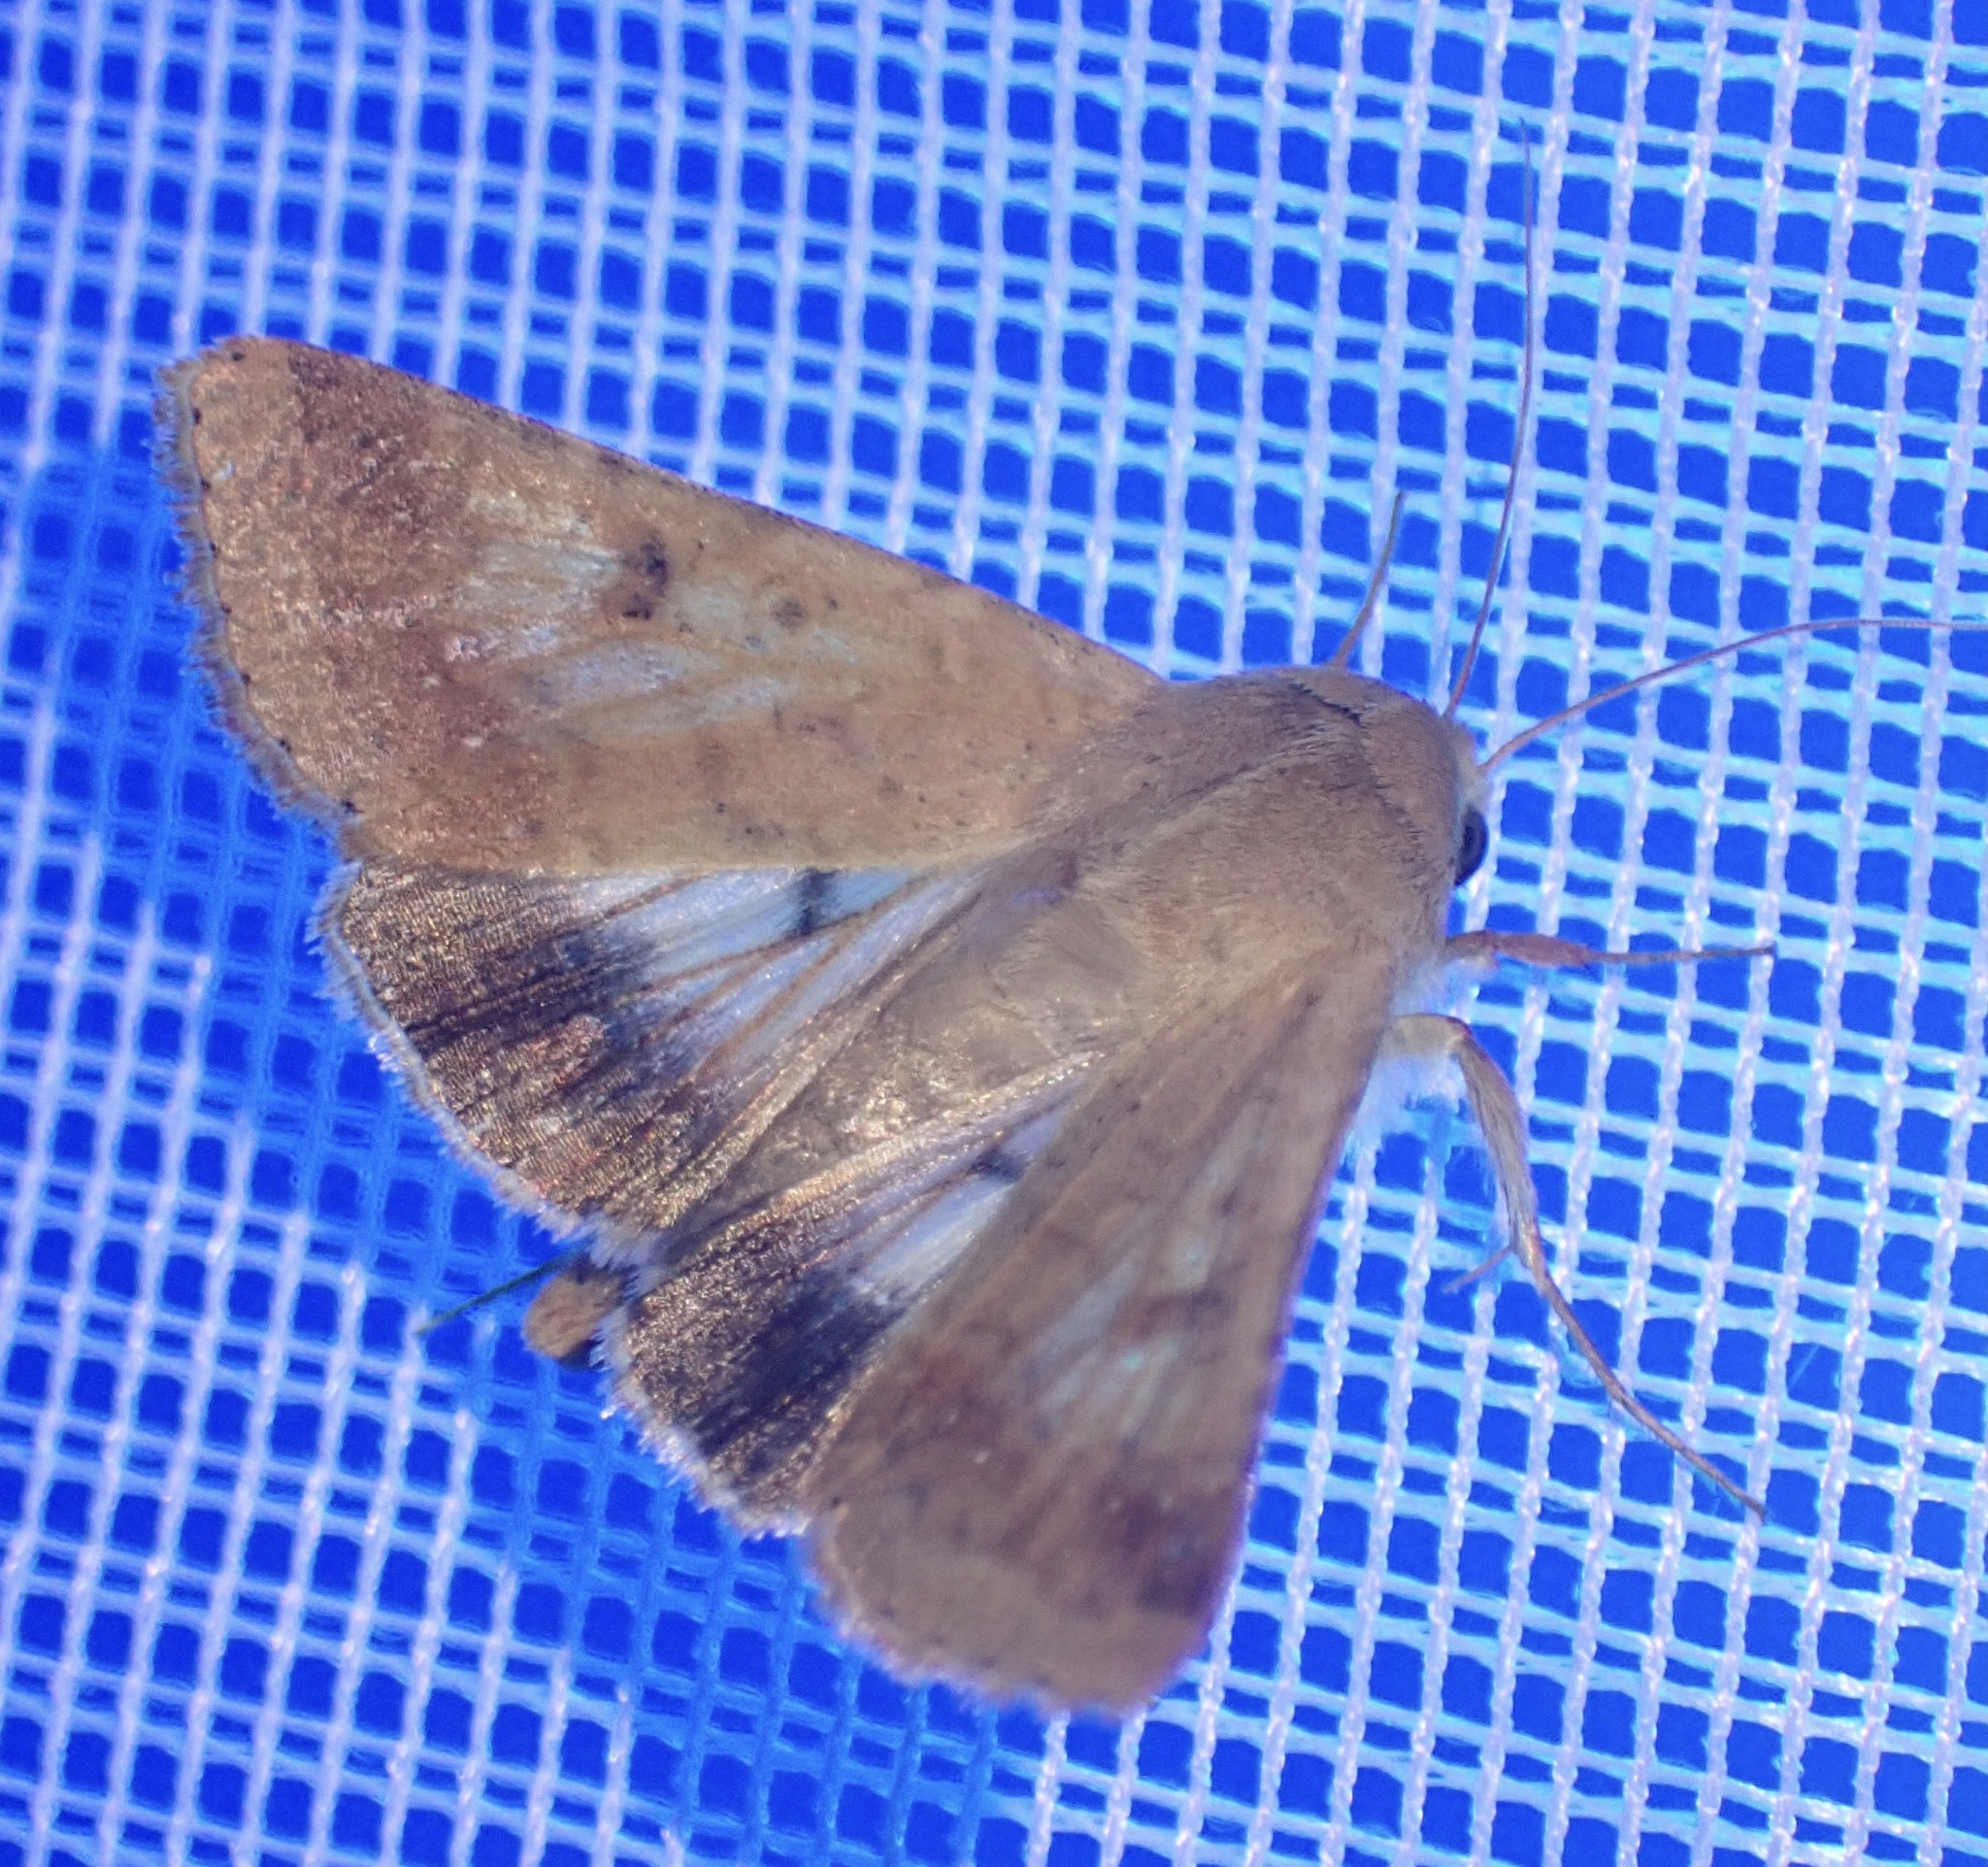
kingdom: Animalia
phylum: Arthropoda
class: Insecta
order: Lepidoptera
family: Noctuidae
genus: Helicoverpa
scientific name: Helicoverpa armigera
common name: Cotton bollworm
